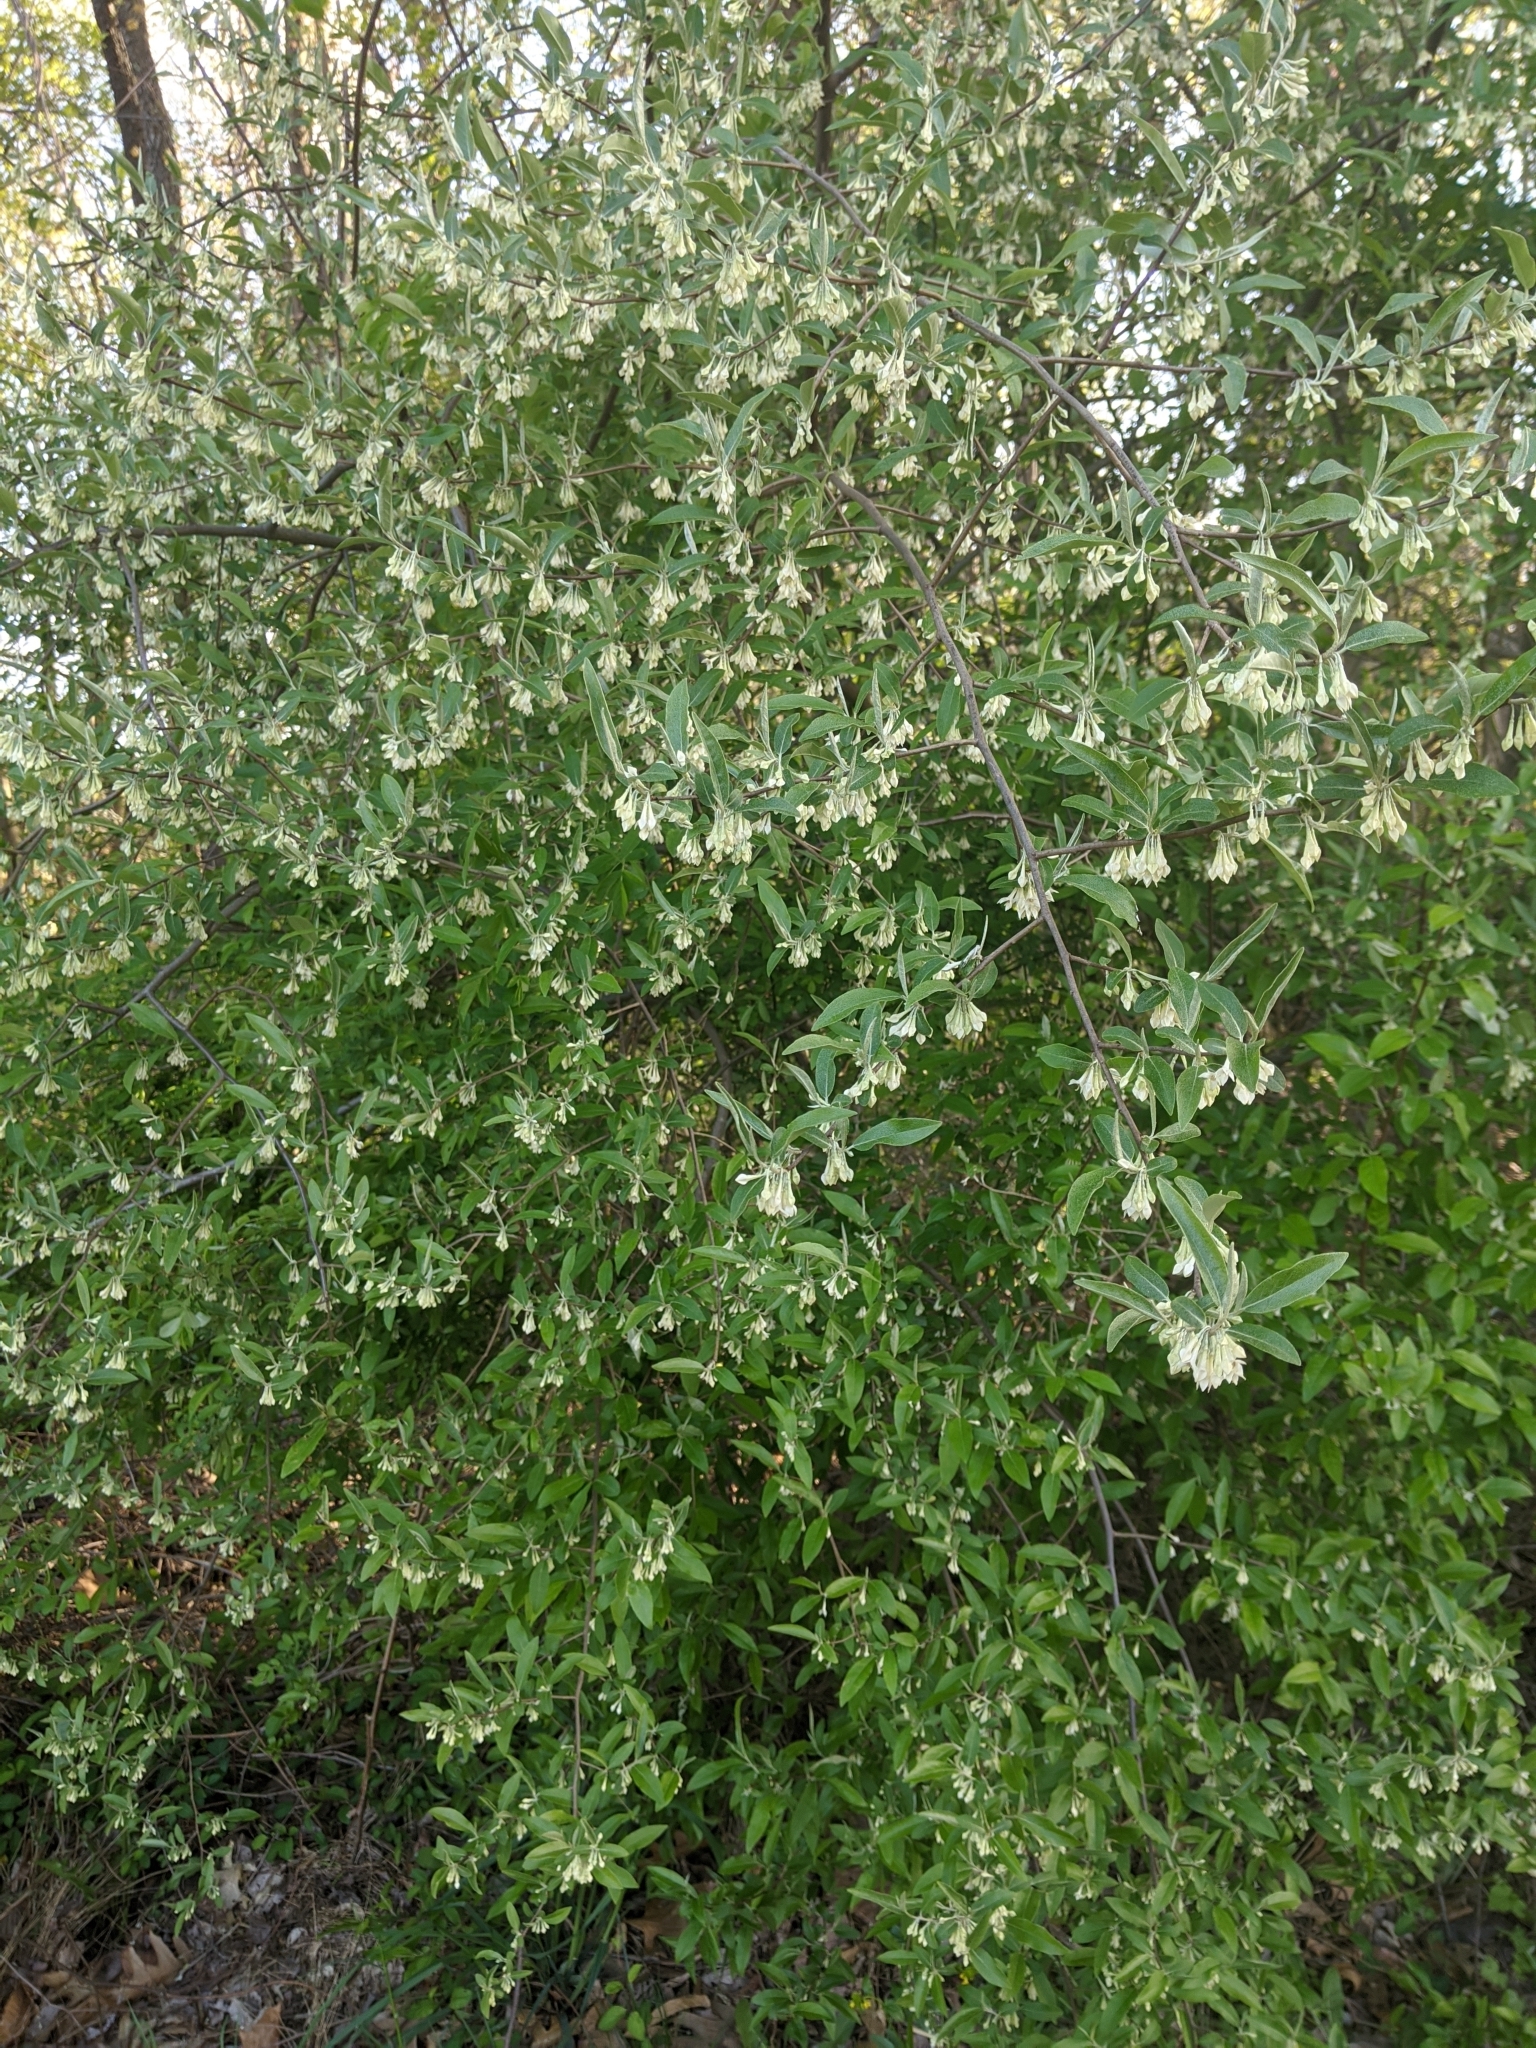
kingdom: Plantae
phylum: Tracheophyta
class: Magnoliopsida
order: Rosales
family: Elaeagnaceae
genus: Elaeagnus
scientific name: Elaeagnus umbellata
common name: Autumn olive
